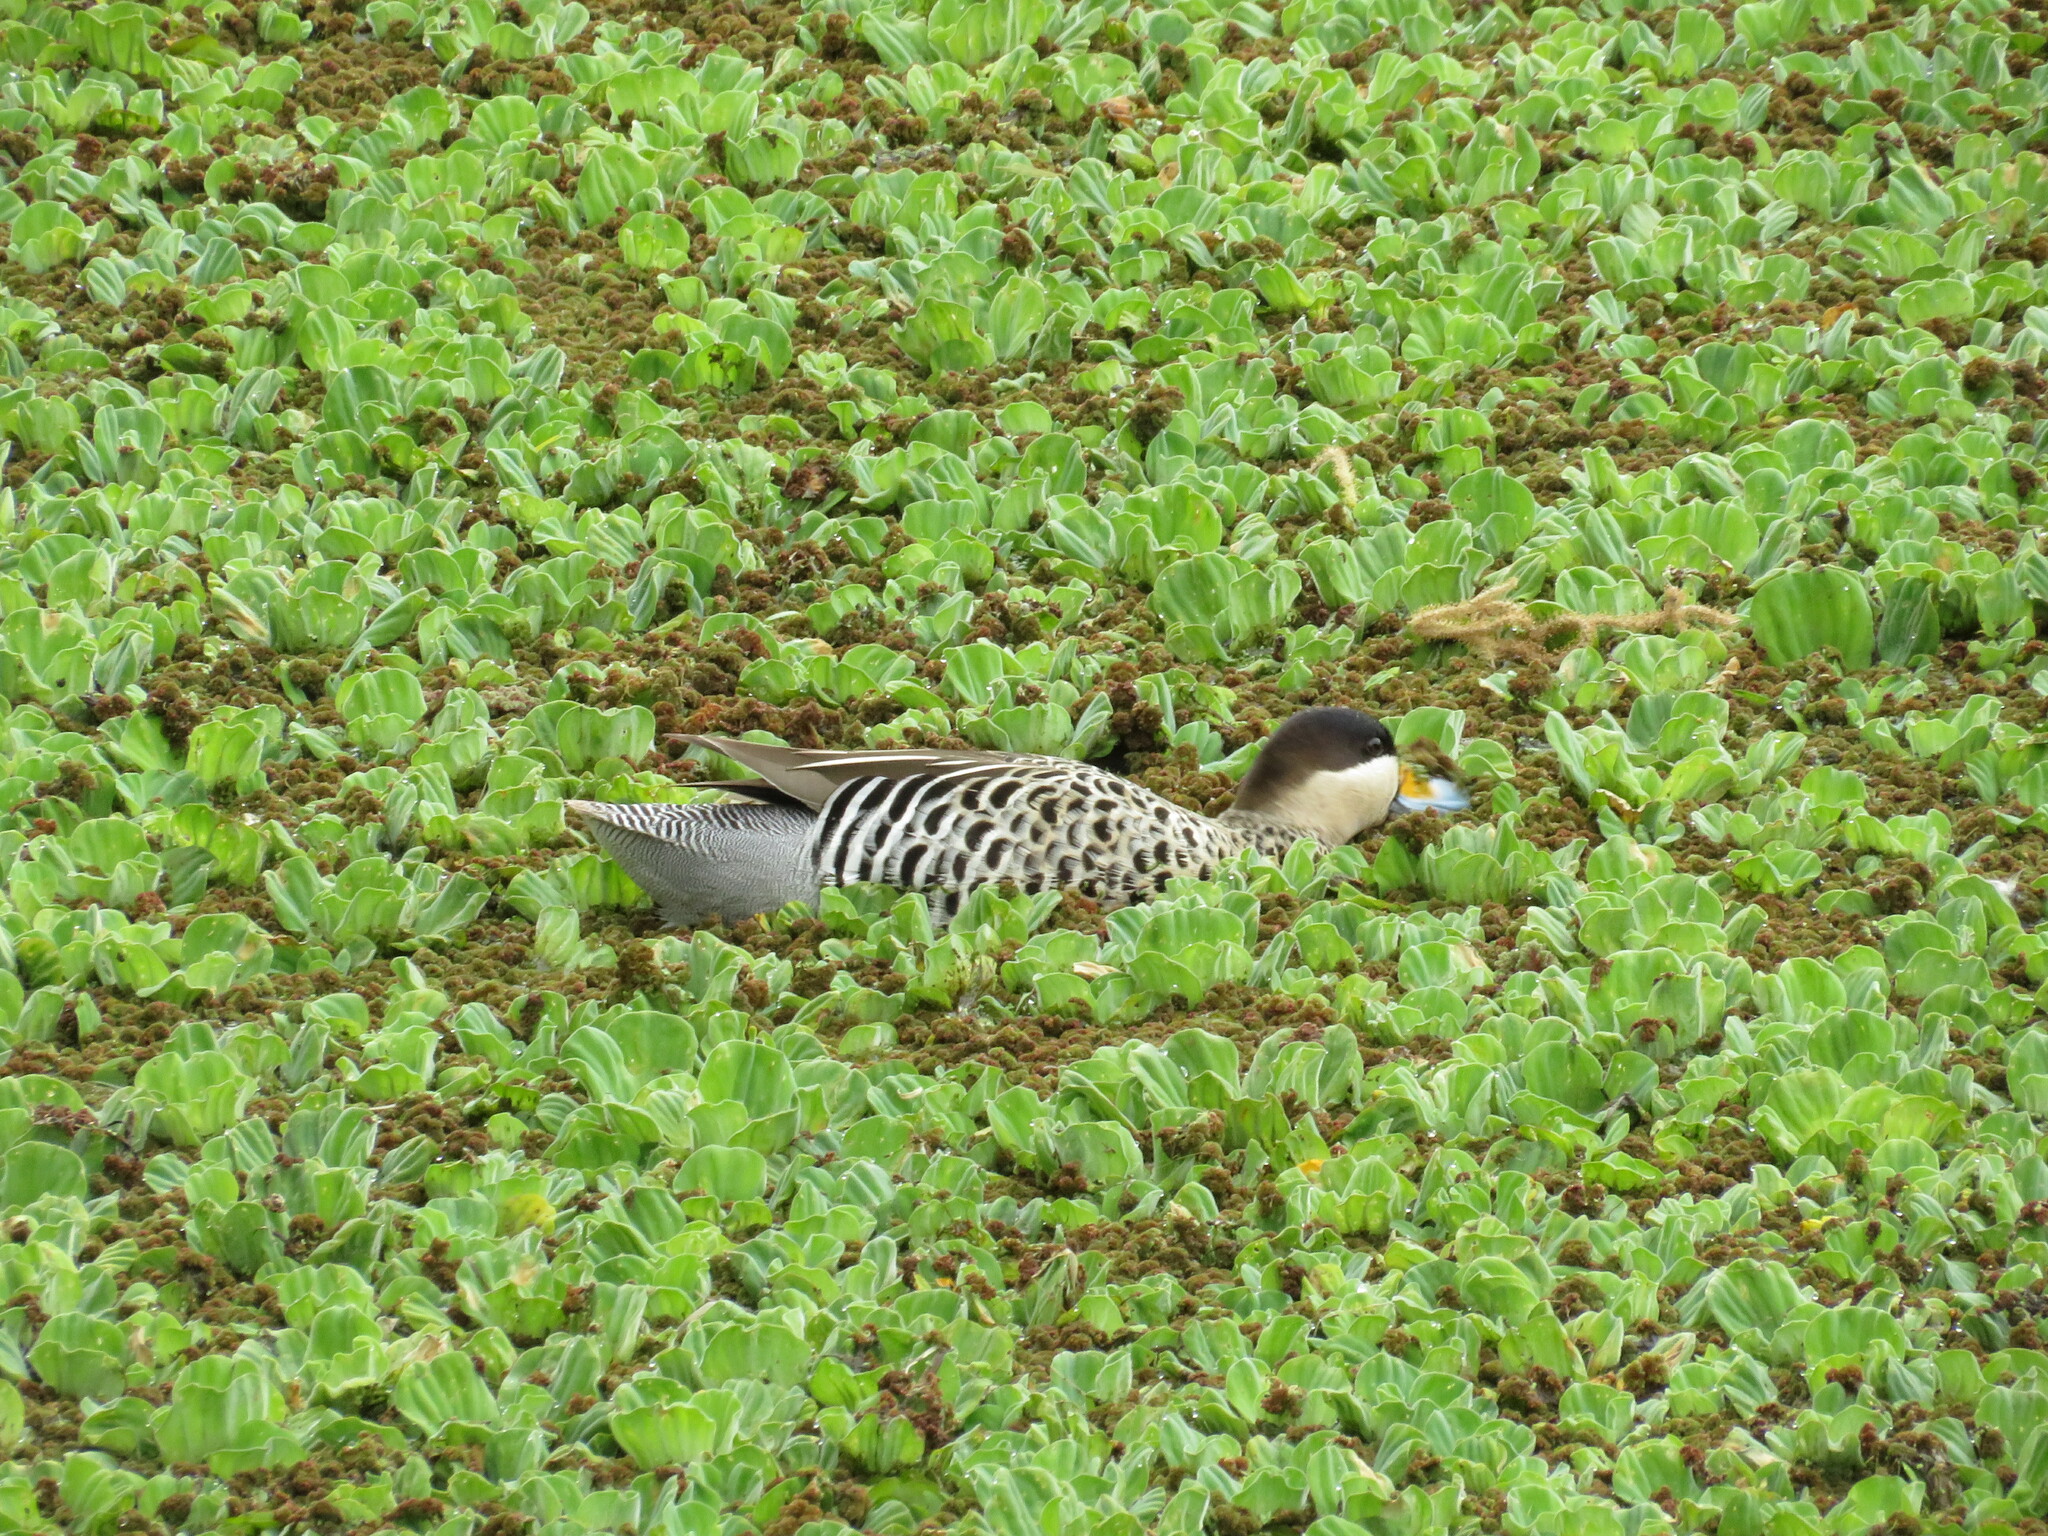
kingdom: Animalia
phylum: Chordata
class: Aves
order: Anseriformes
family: Anatidae
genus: Spatula
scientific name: Spatula versicolor
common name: Silver teal
